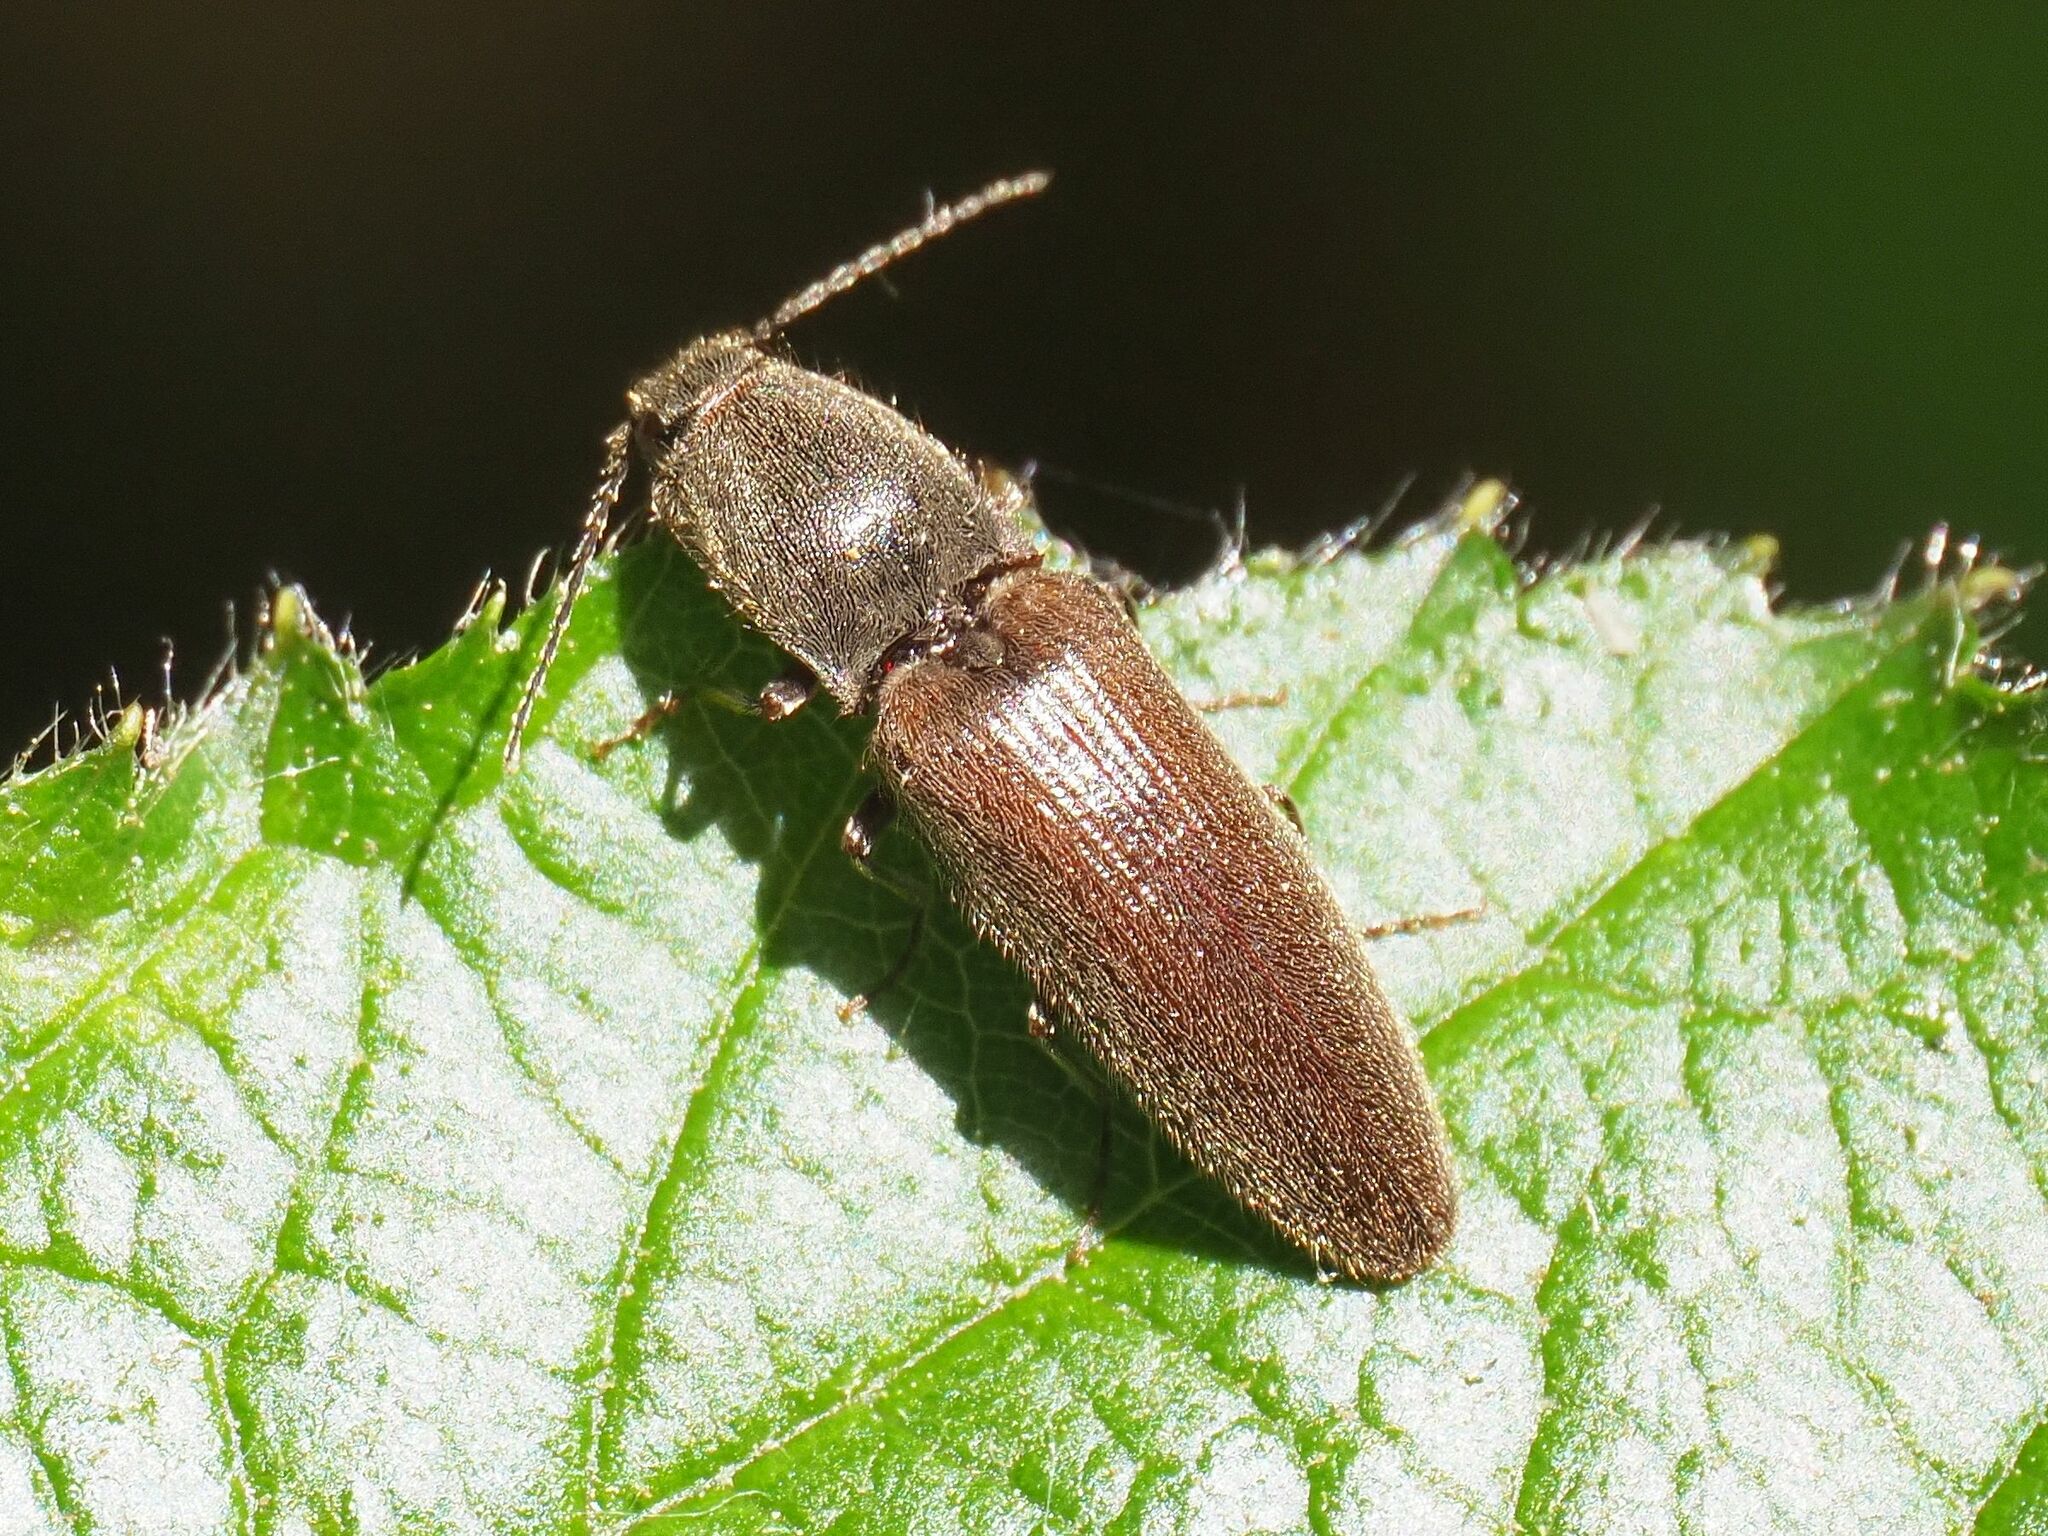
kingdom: Animalia
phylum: Arthropoda
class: Insecta
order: Coleoptera
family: Elateridae
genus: Athous
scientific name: Athous haemorrhoidalis
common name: Red-brown click beetle
